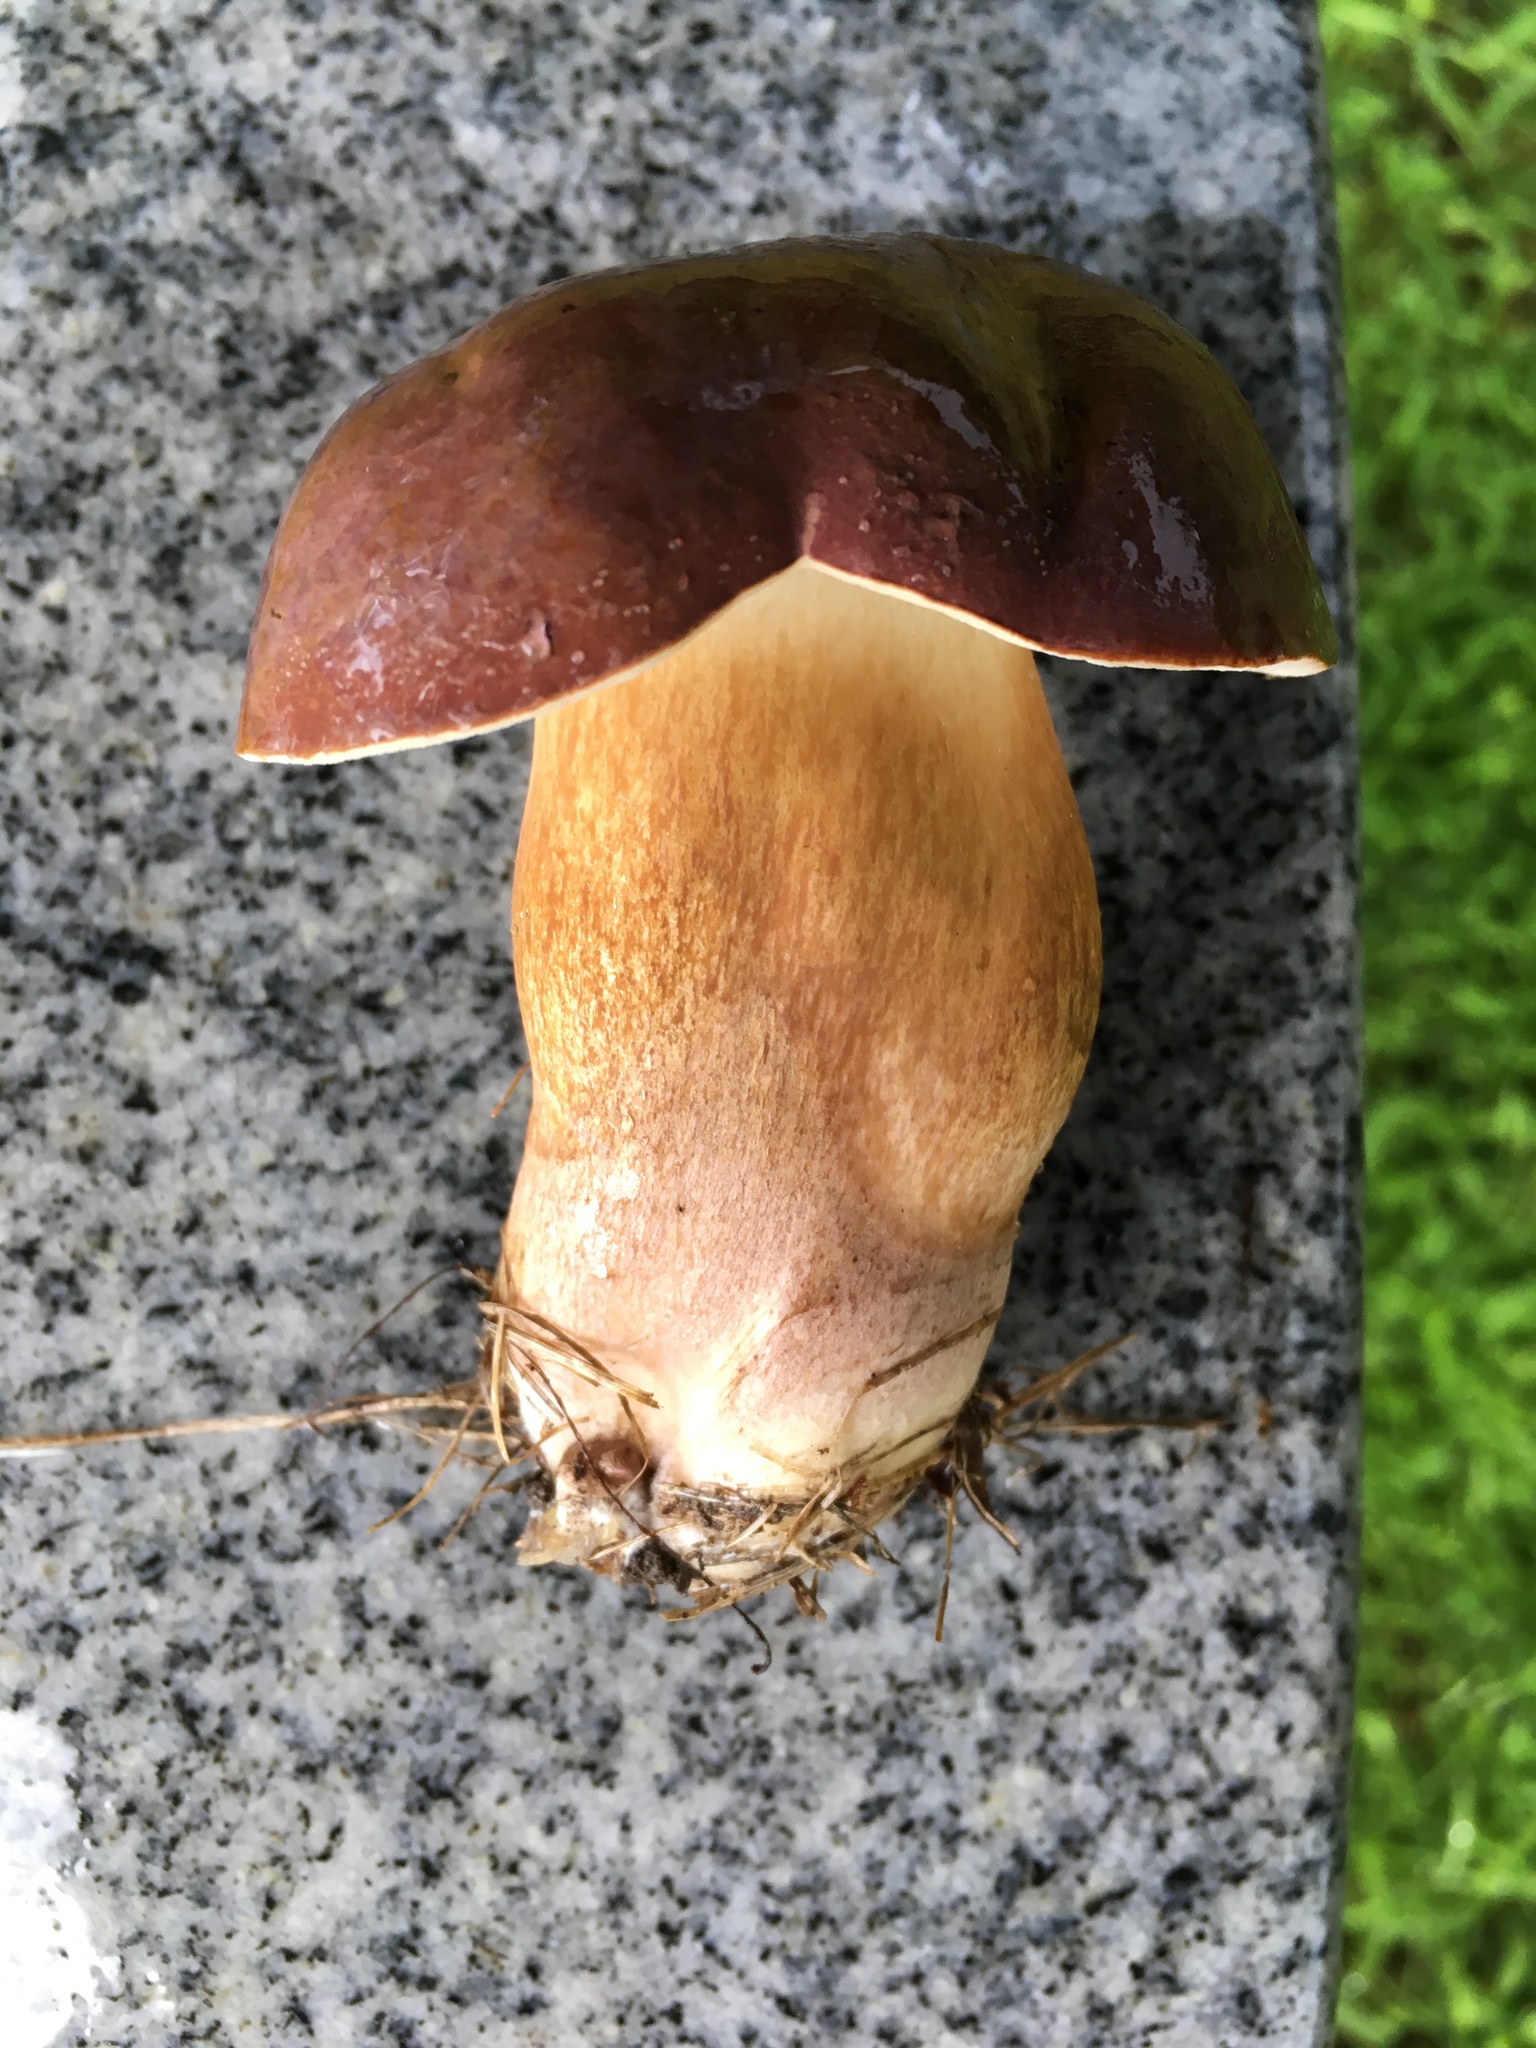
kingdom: Fungi
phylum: Basidiomycota
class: Agaricomycetes
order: Boletales
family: Boletaceae
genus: Tylopilus
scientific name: Tylopilus ferrugineus
